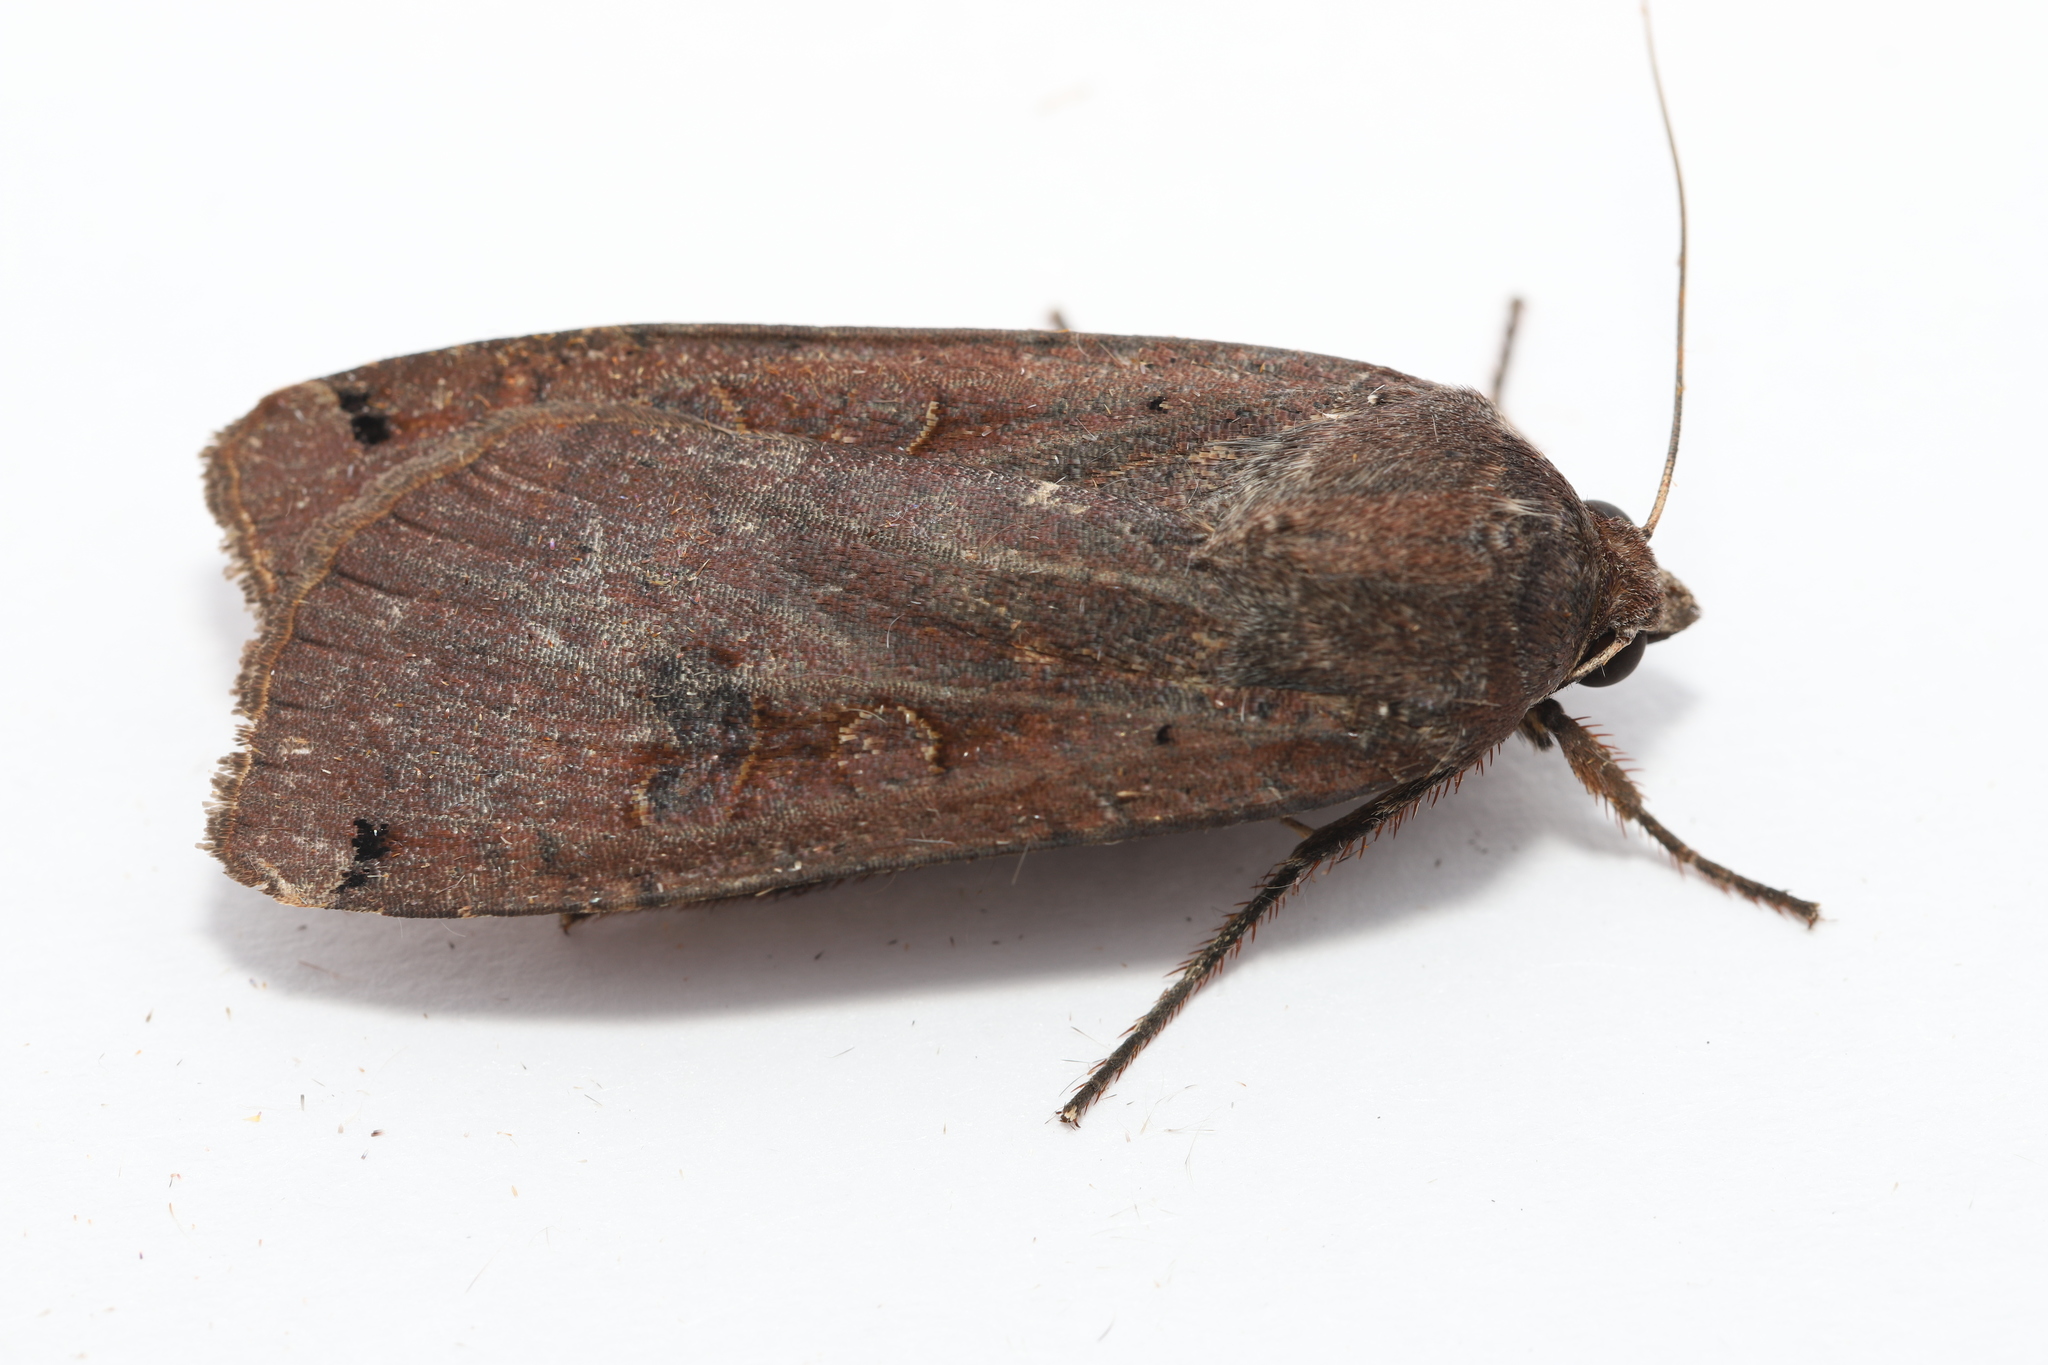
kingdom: Animalia
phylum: Arthropoda
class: Insecta
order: Lepidoptera
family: Noctuidae
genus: Noctua
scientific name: Noctua pronuba
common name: Large yellow underwing
